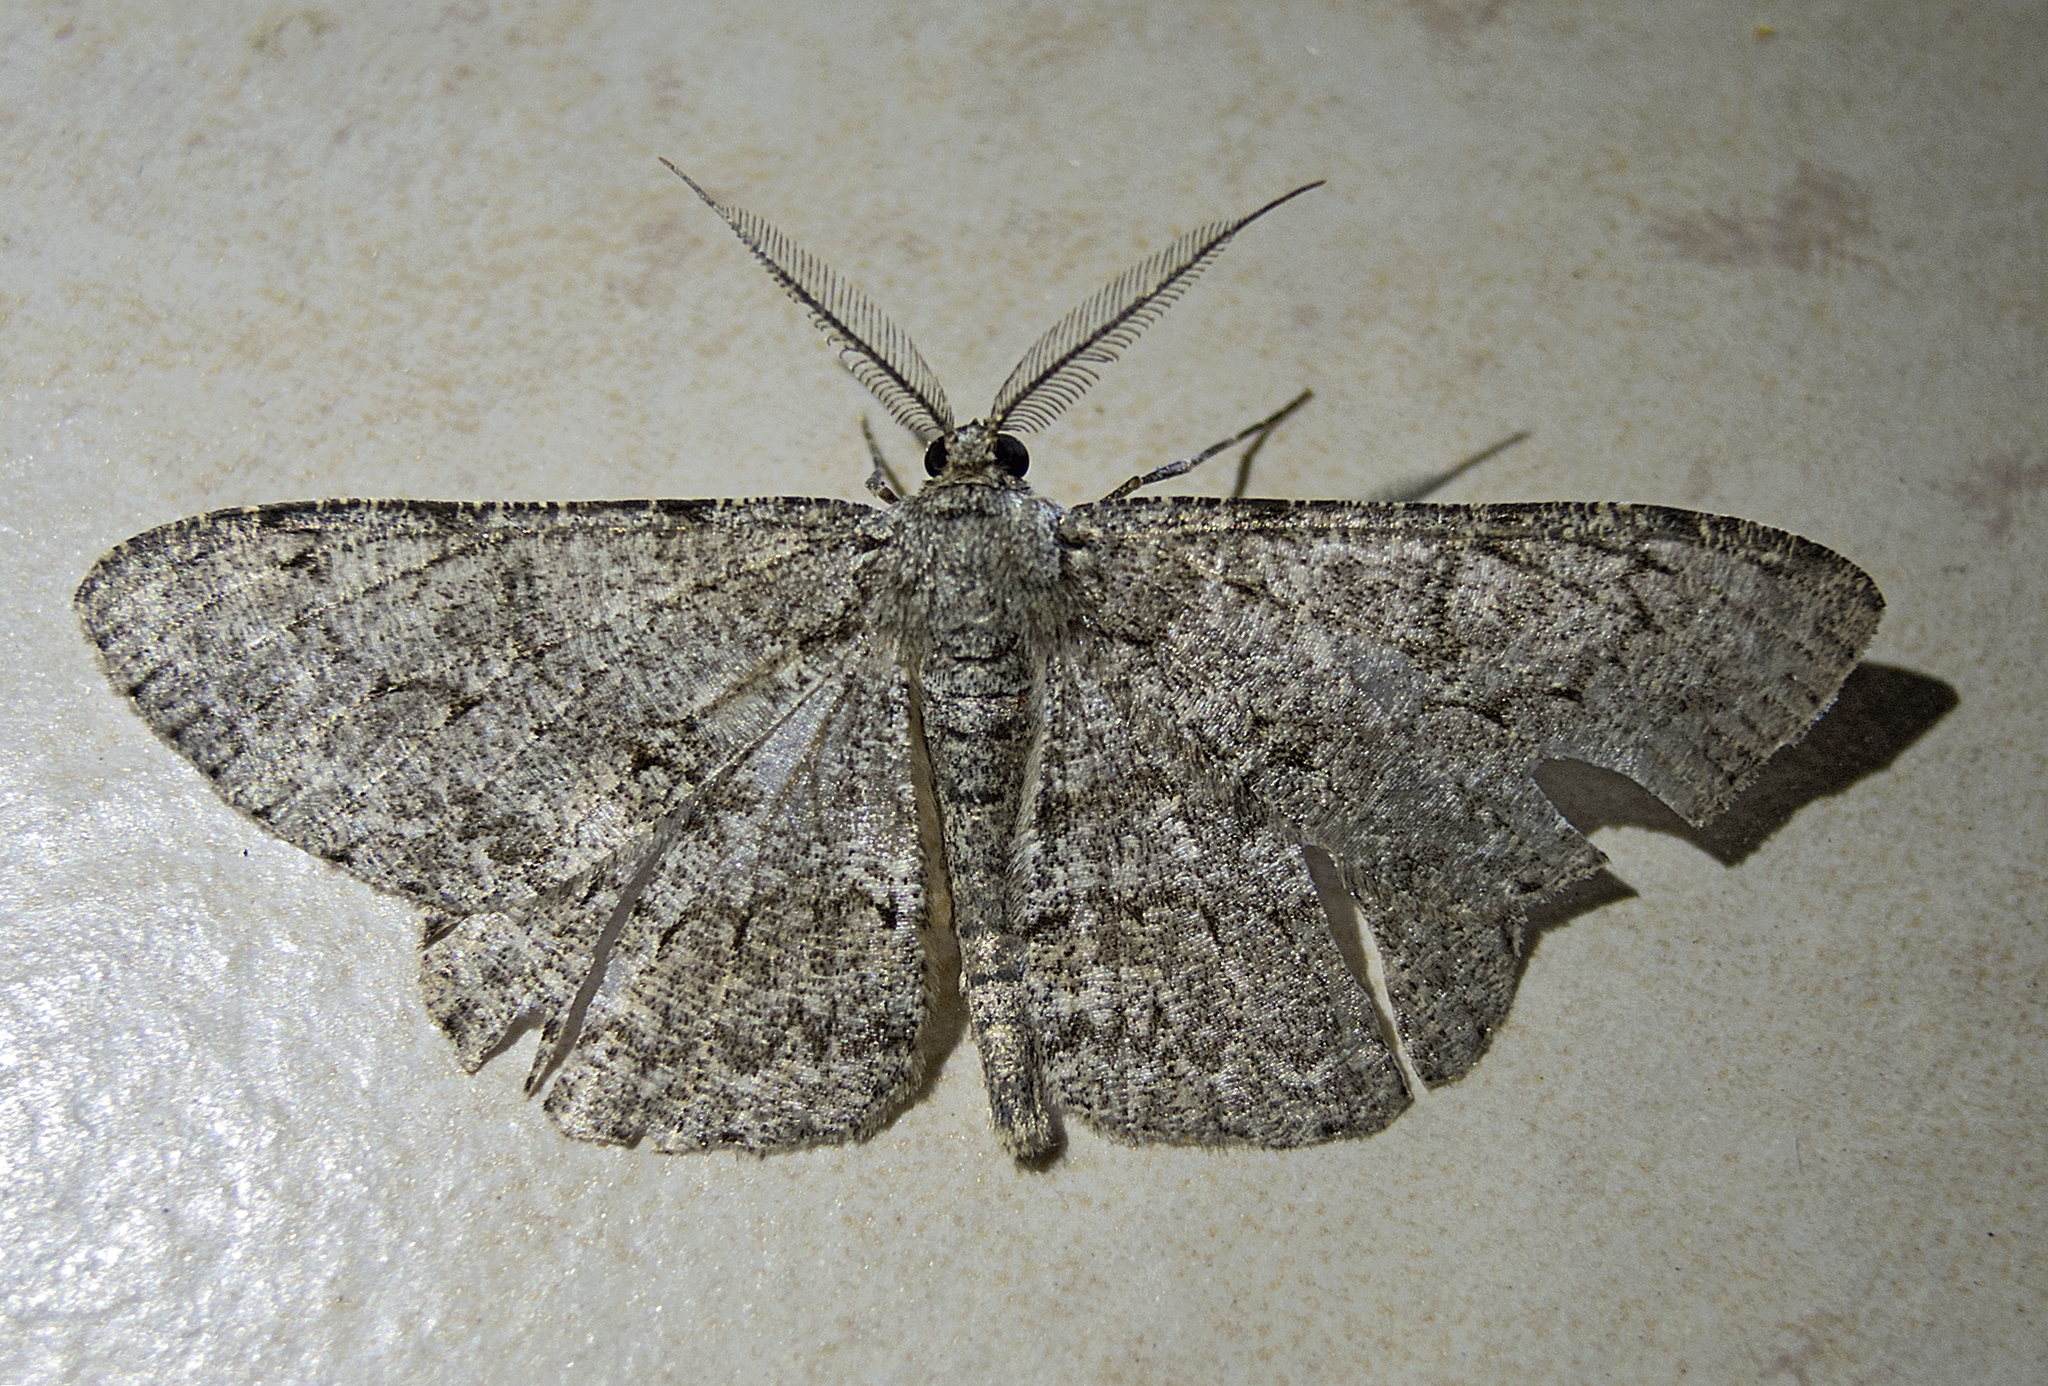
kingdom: Animalia
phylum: Arthropoda
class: Insecta
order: Lepidoptera
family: Geometridae
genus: Hypomecis
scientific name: Hypomecis punctinalis
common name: Pale oak beauty
